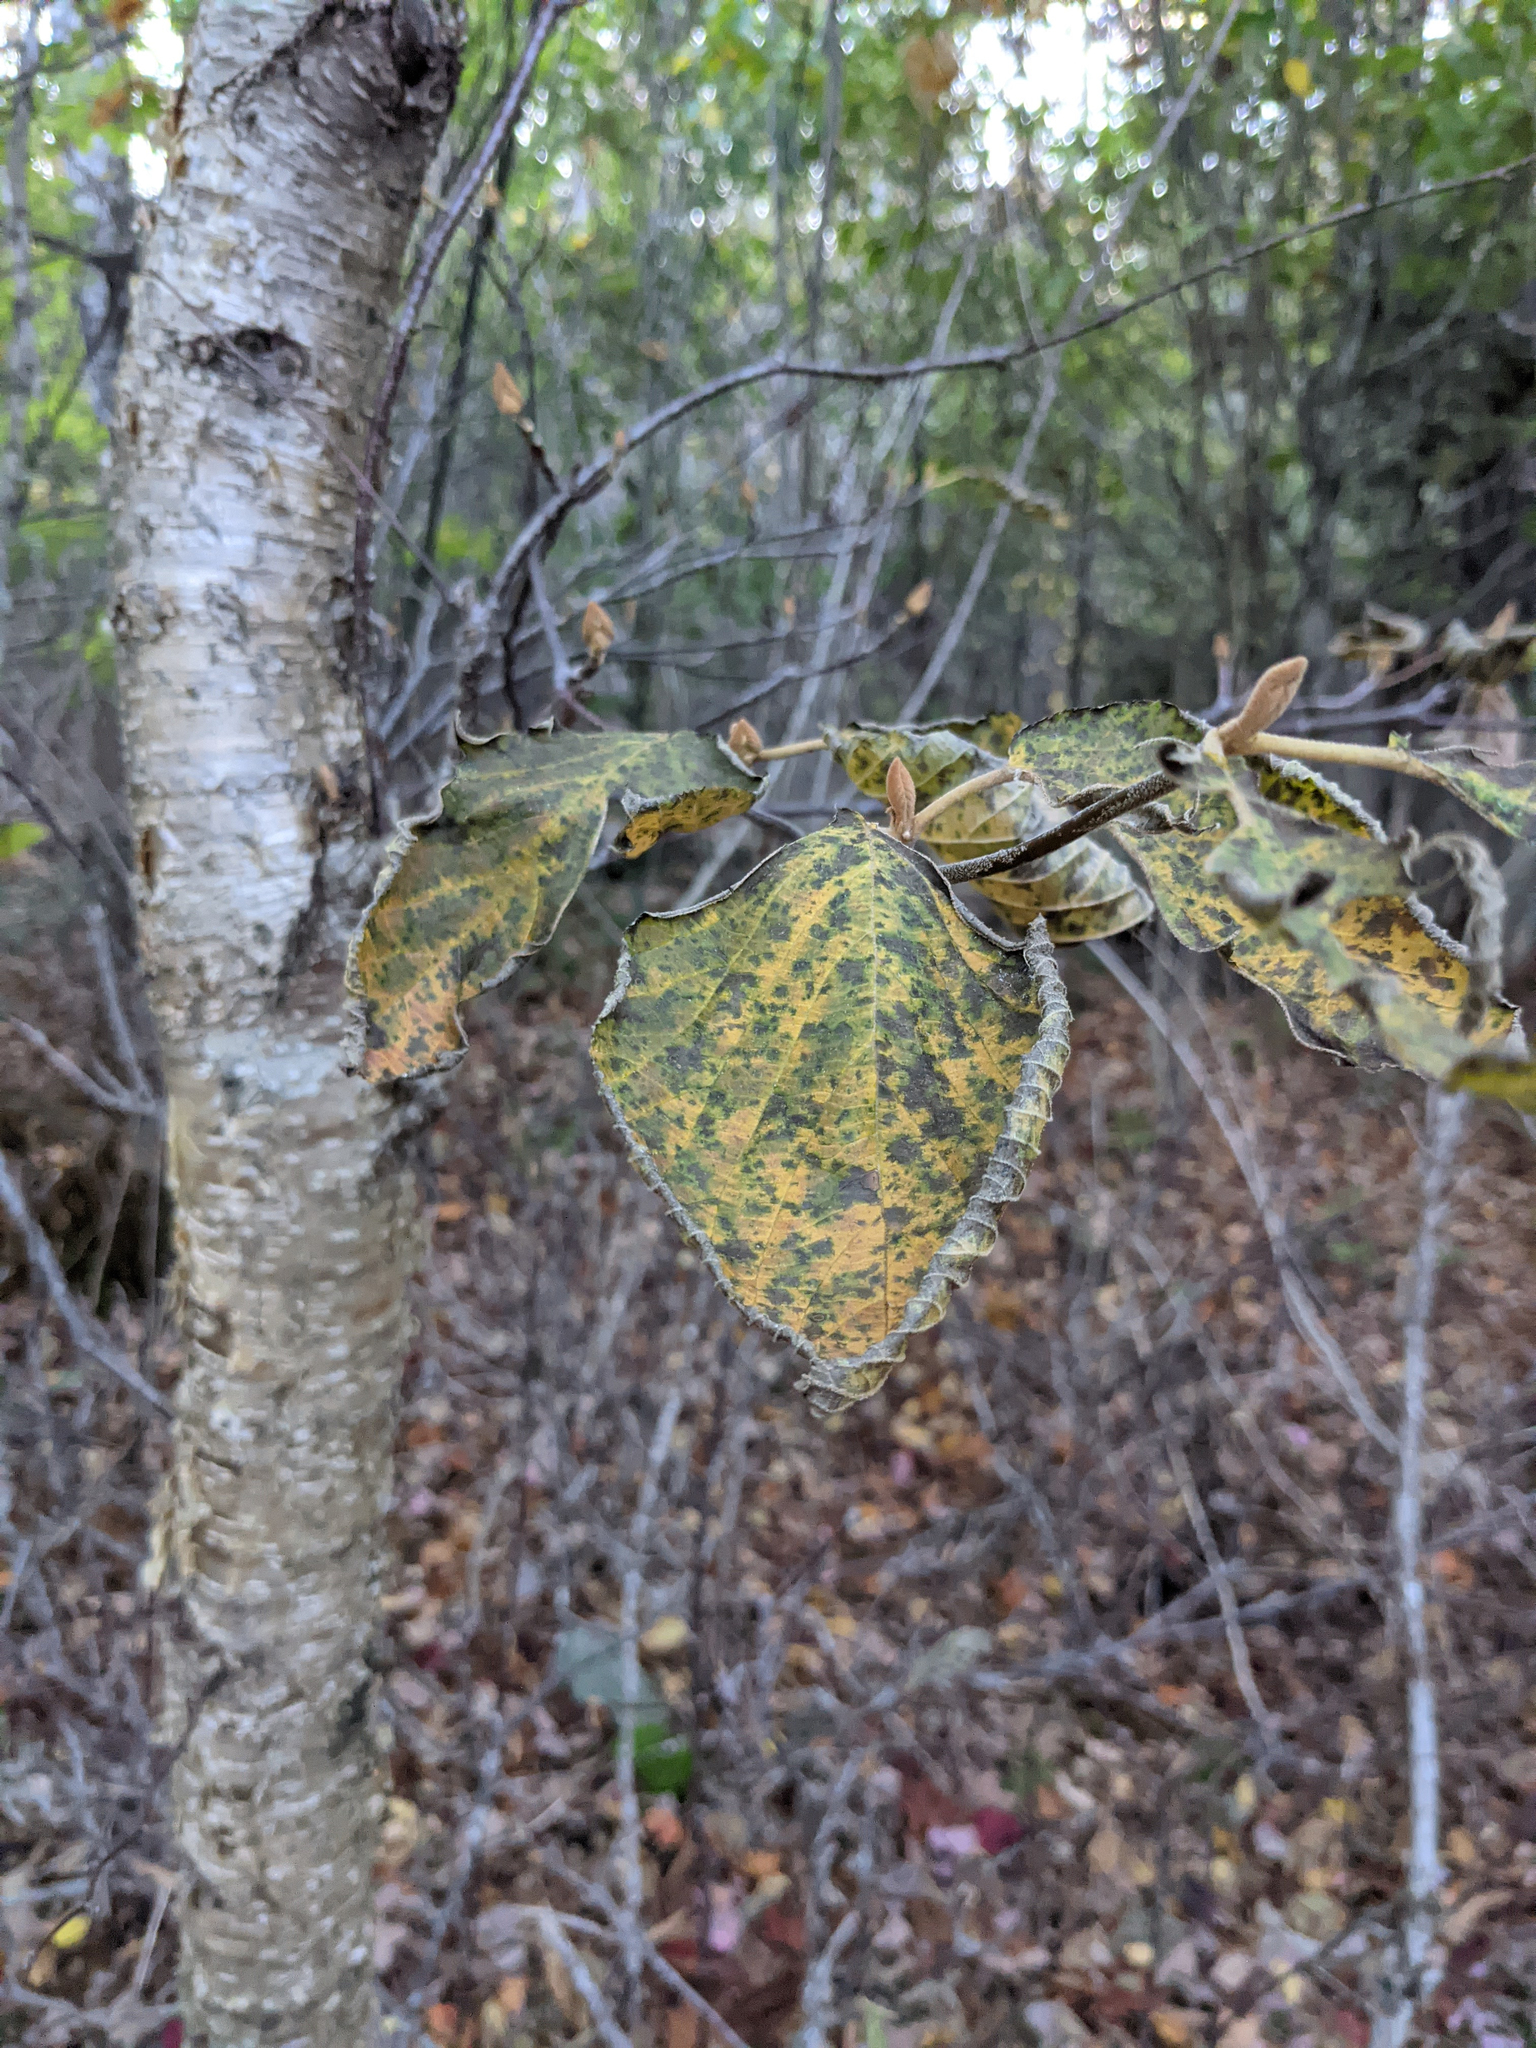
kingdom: Plantae
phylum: Tracheophyta
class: Magnoliopsida
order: Dipsacales
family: Viburnaceae
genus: Viburnum
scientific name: Viburnum lantanoides
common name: Hobblebush
